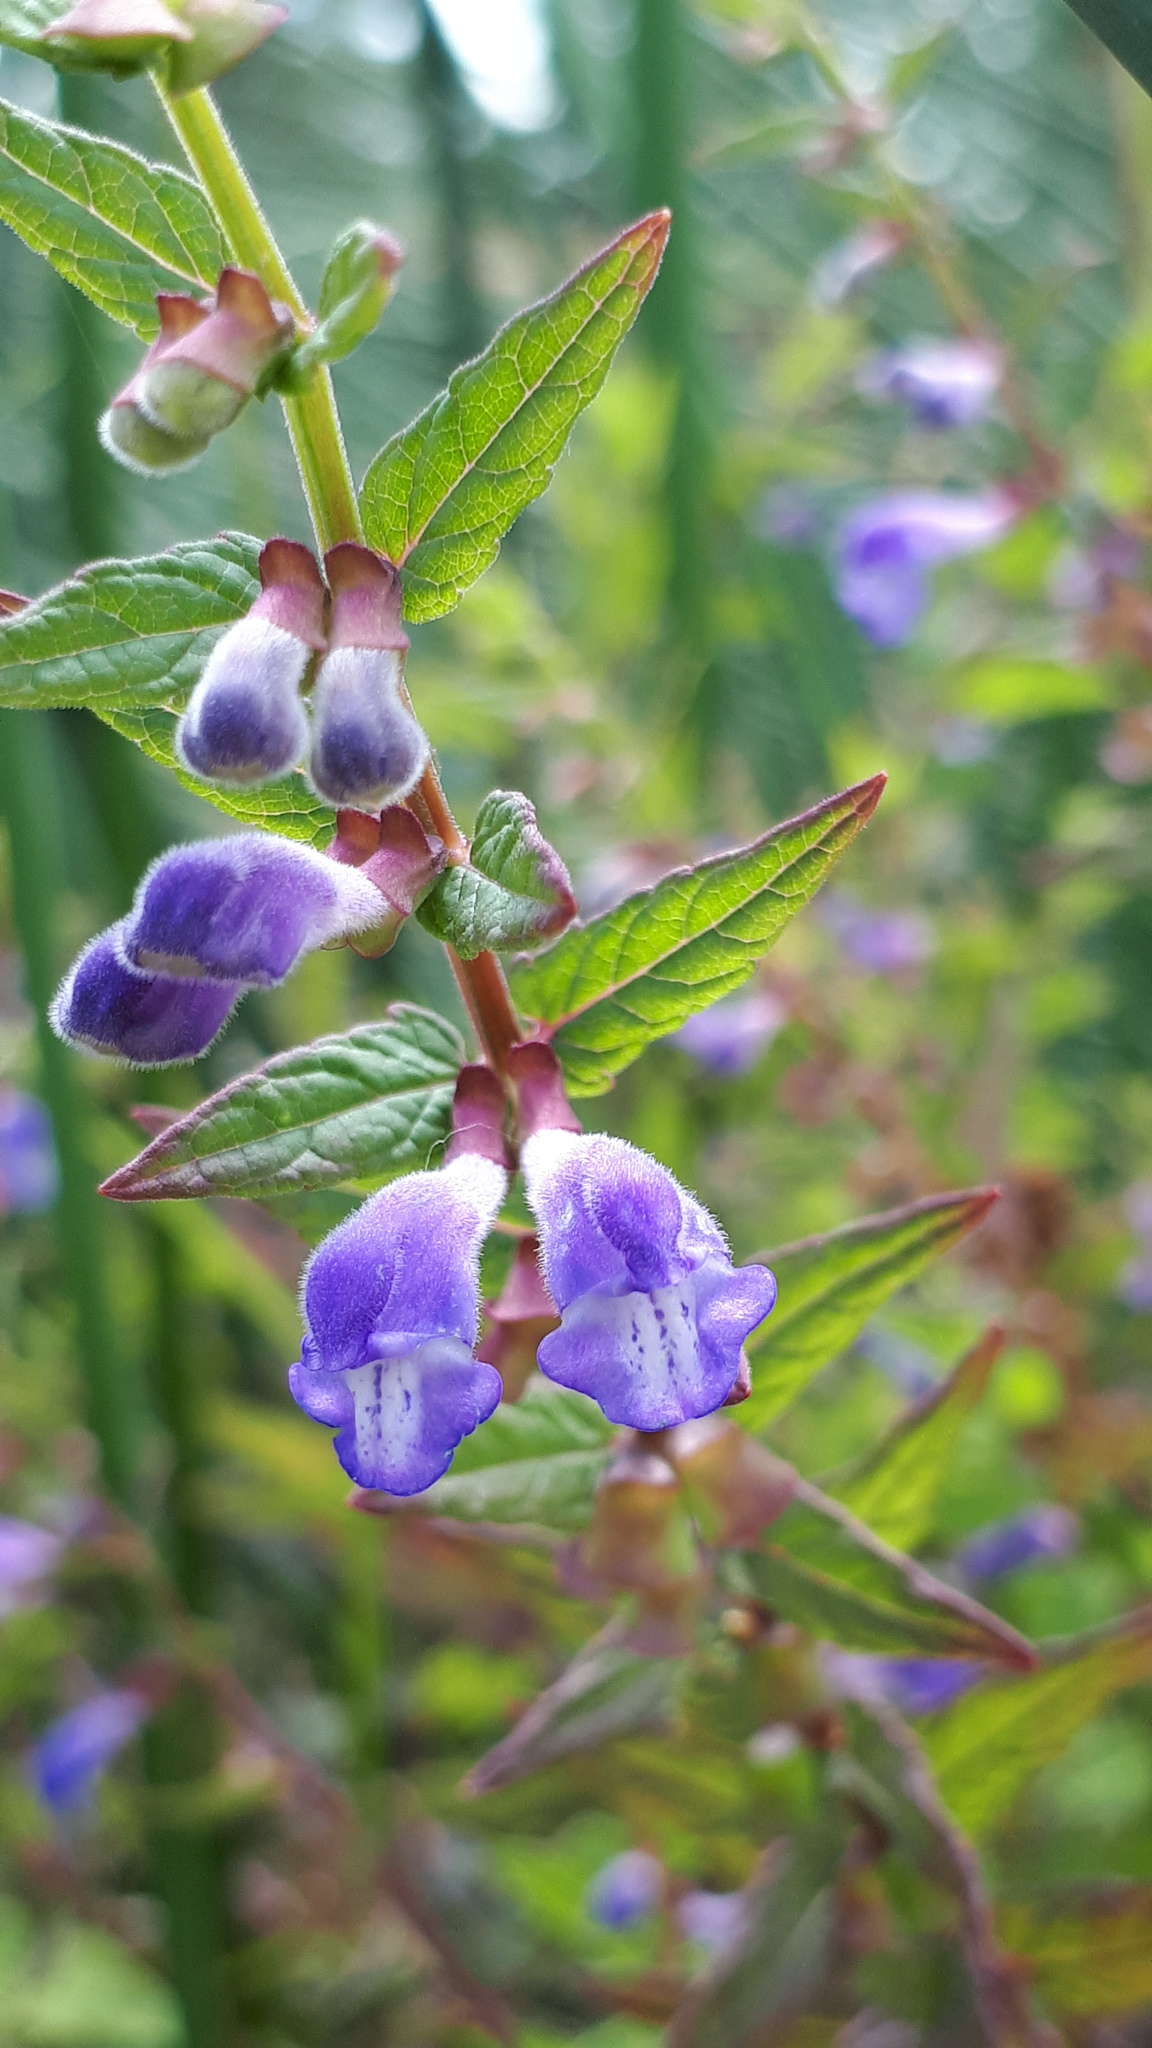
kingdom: Plantae
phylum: Tracheophyta
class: Magnoliopsida
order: Lamiales
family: Lamiaceae
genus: Scutellaria
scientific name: Scutellaria galericulata
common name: Skullcap
